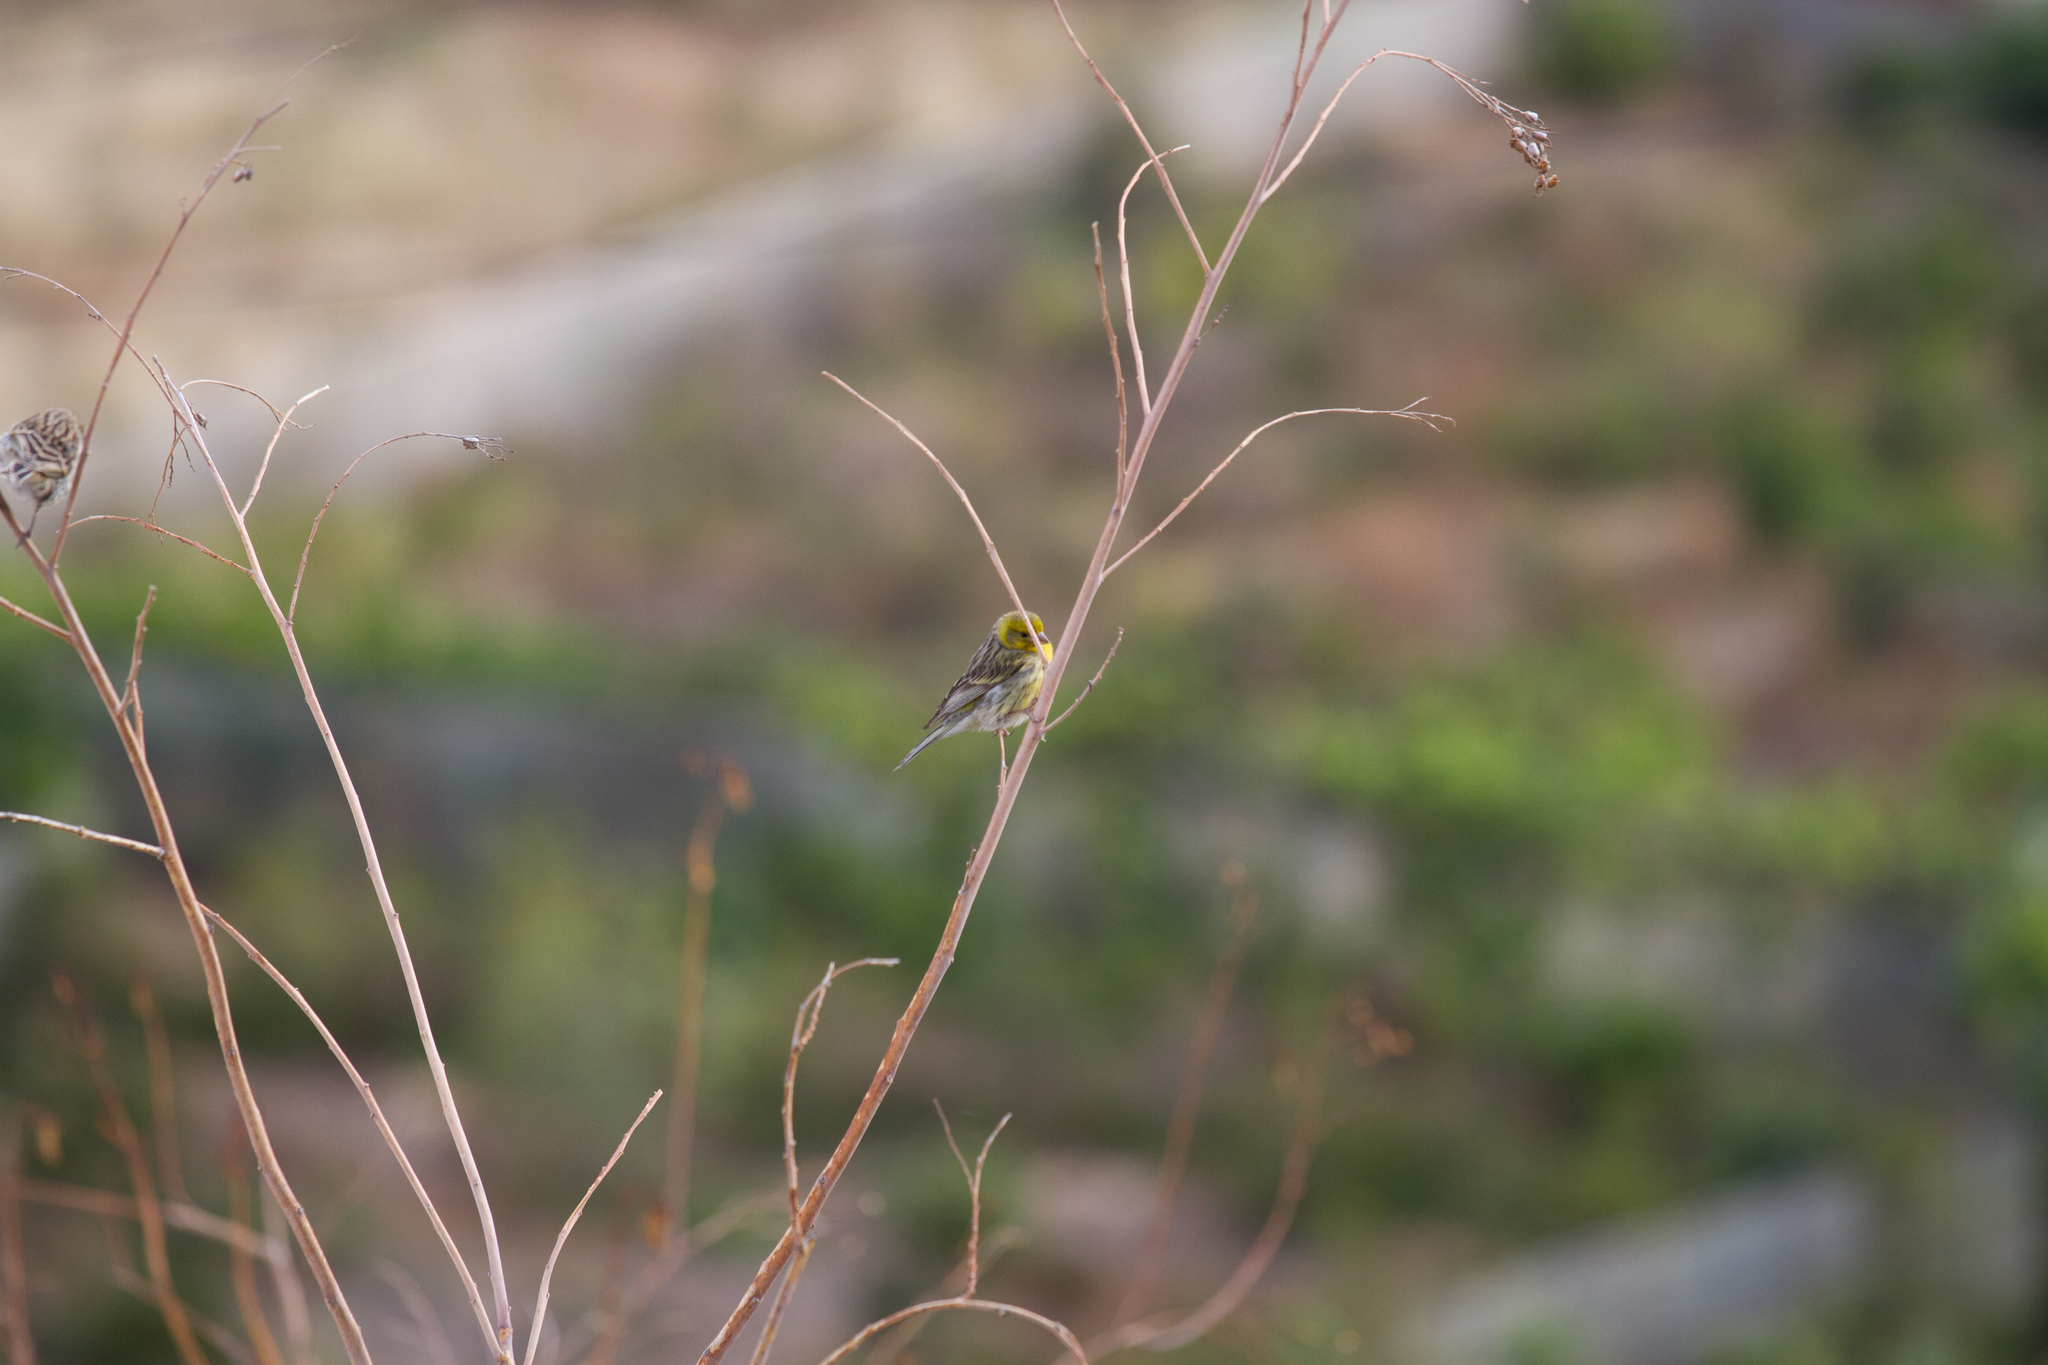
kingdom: Animalia
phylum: Chordata
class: Aves
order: Passeriformes
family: Fringillidae
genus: Serinus
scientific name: Serinus canaria
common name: Atlantic canary
